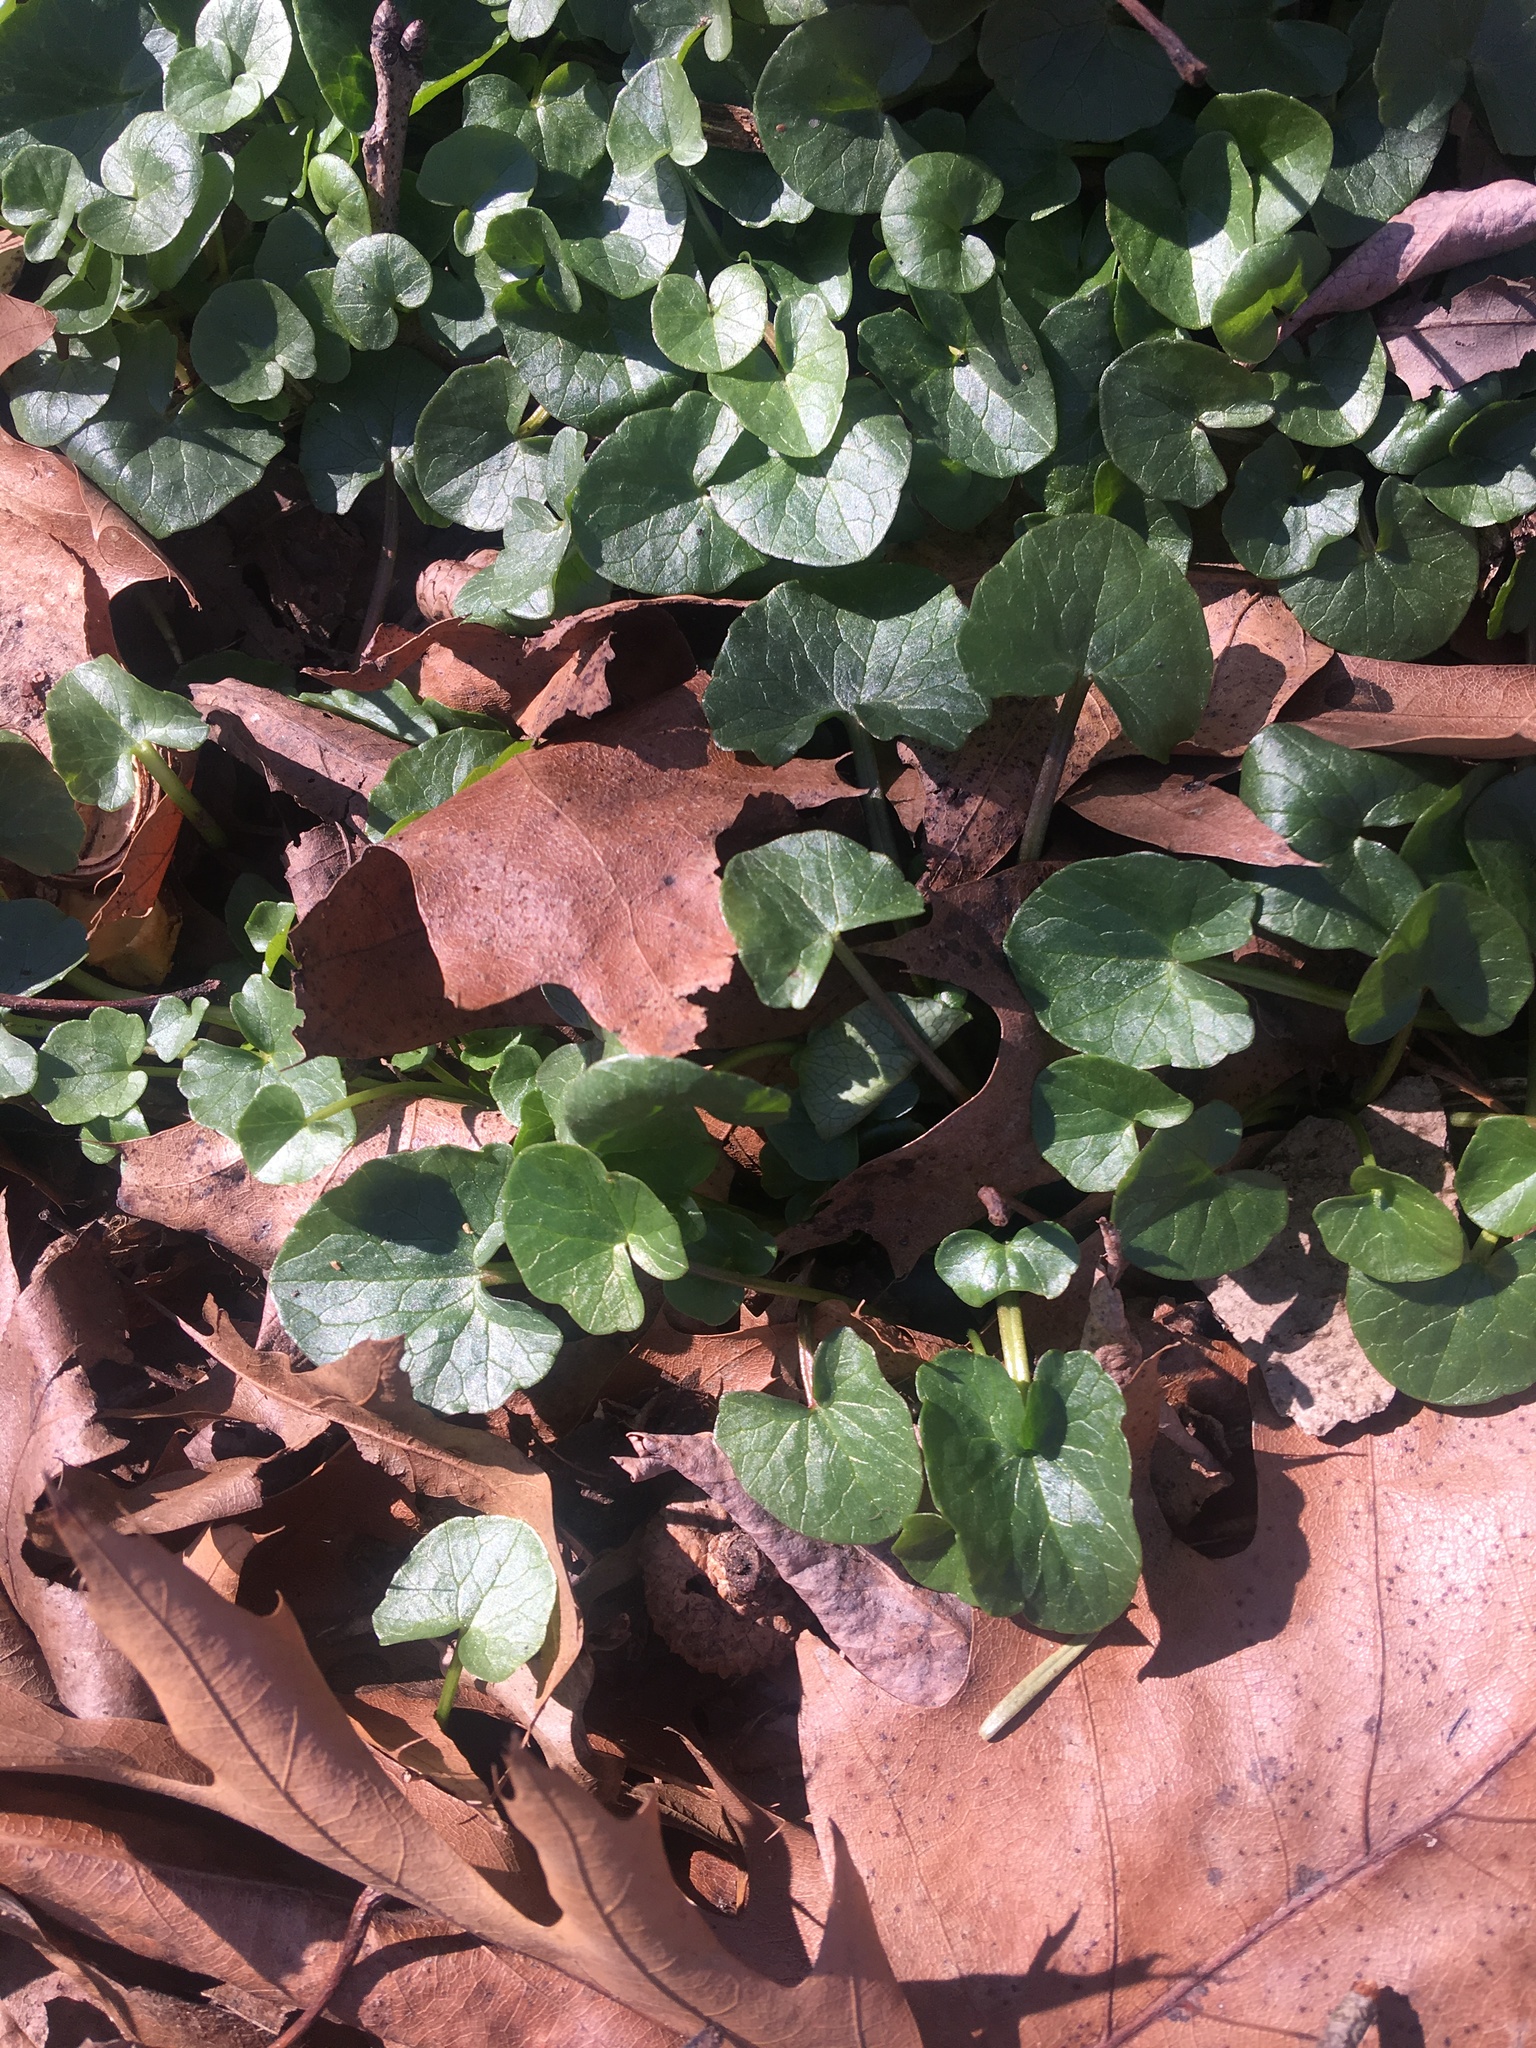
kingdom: Plantae
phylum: Tracheophyta
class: Magnoliopsida
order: Ranunculales
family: Ranunculaceae
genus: Ficaria
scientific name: Ficaria verna
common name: Lesser celandine
